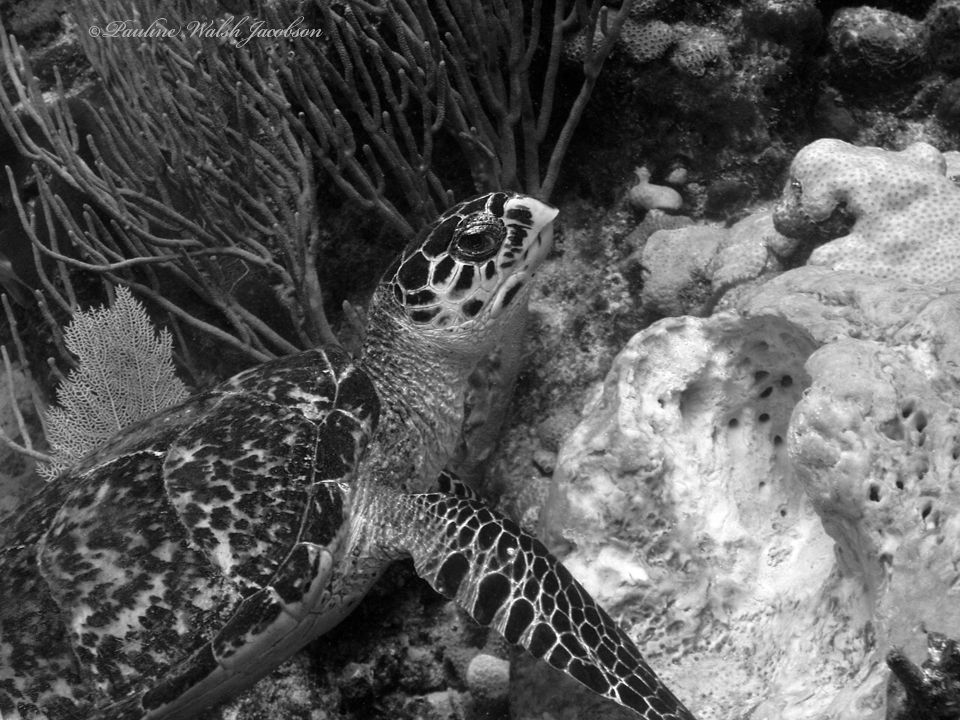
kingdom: Animalia
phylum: Chordata
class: Testudines
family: Cheloniidae
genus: Eretmochelys
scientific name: Eretmochelys imbricata
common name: Hawksbill turtle
